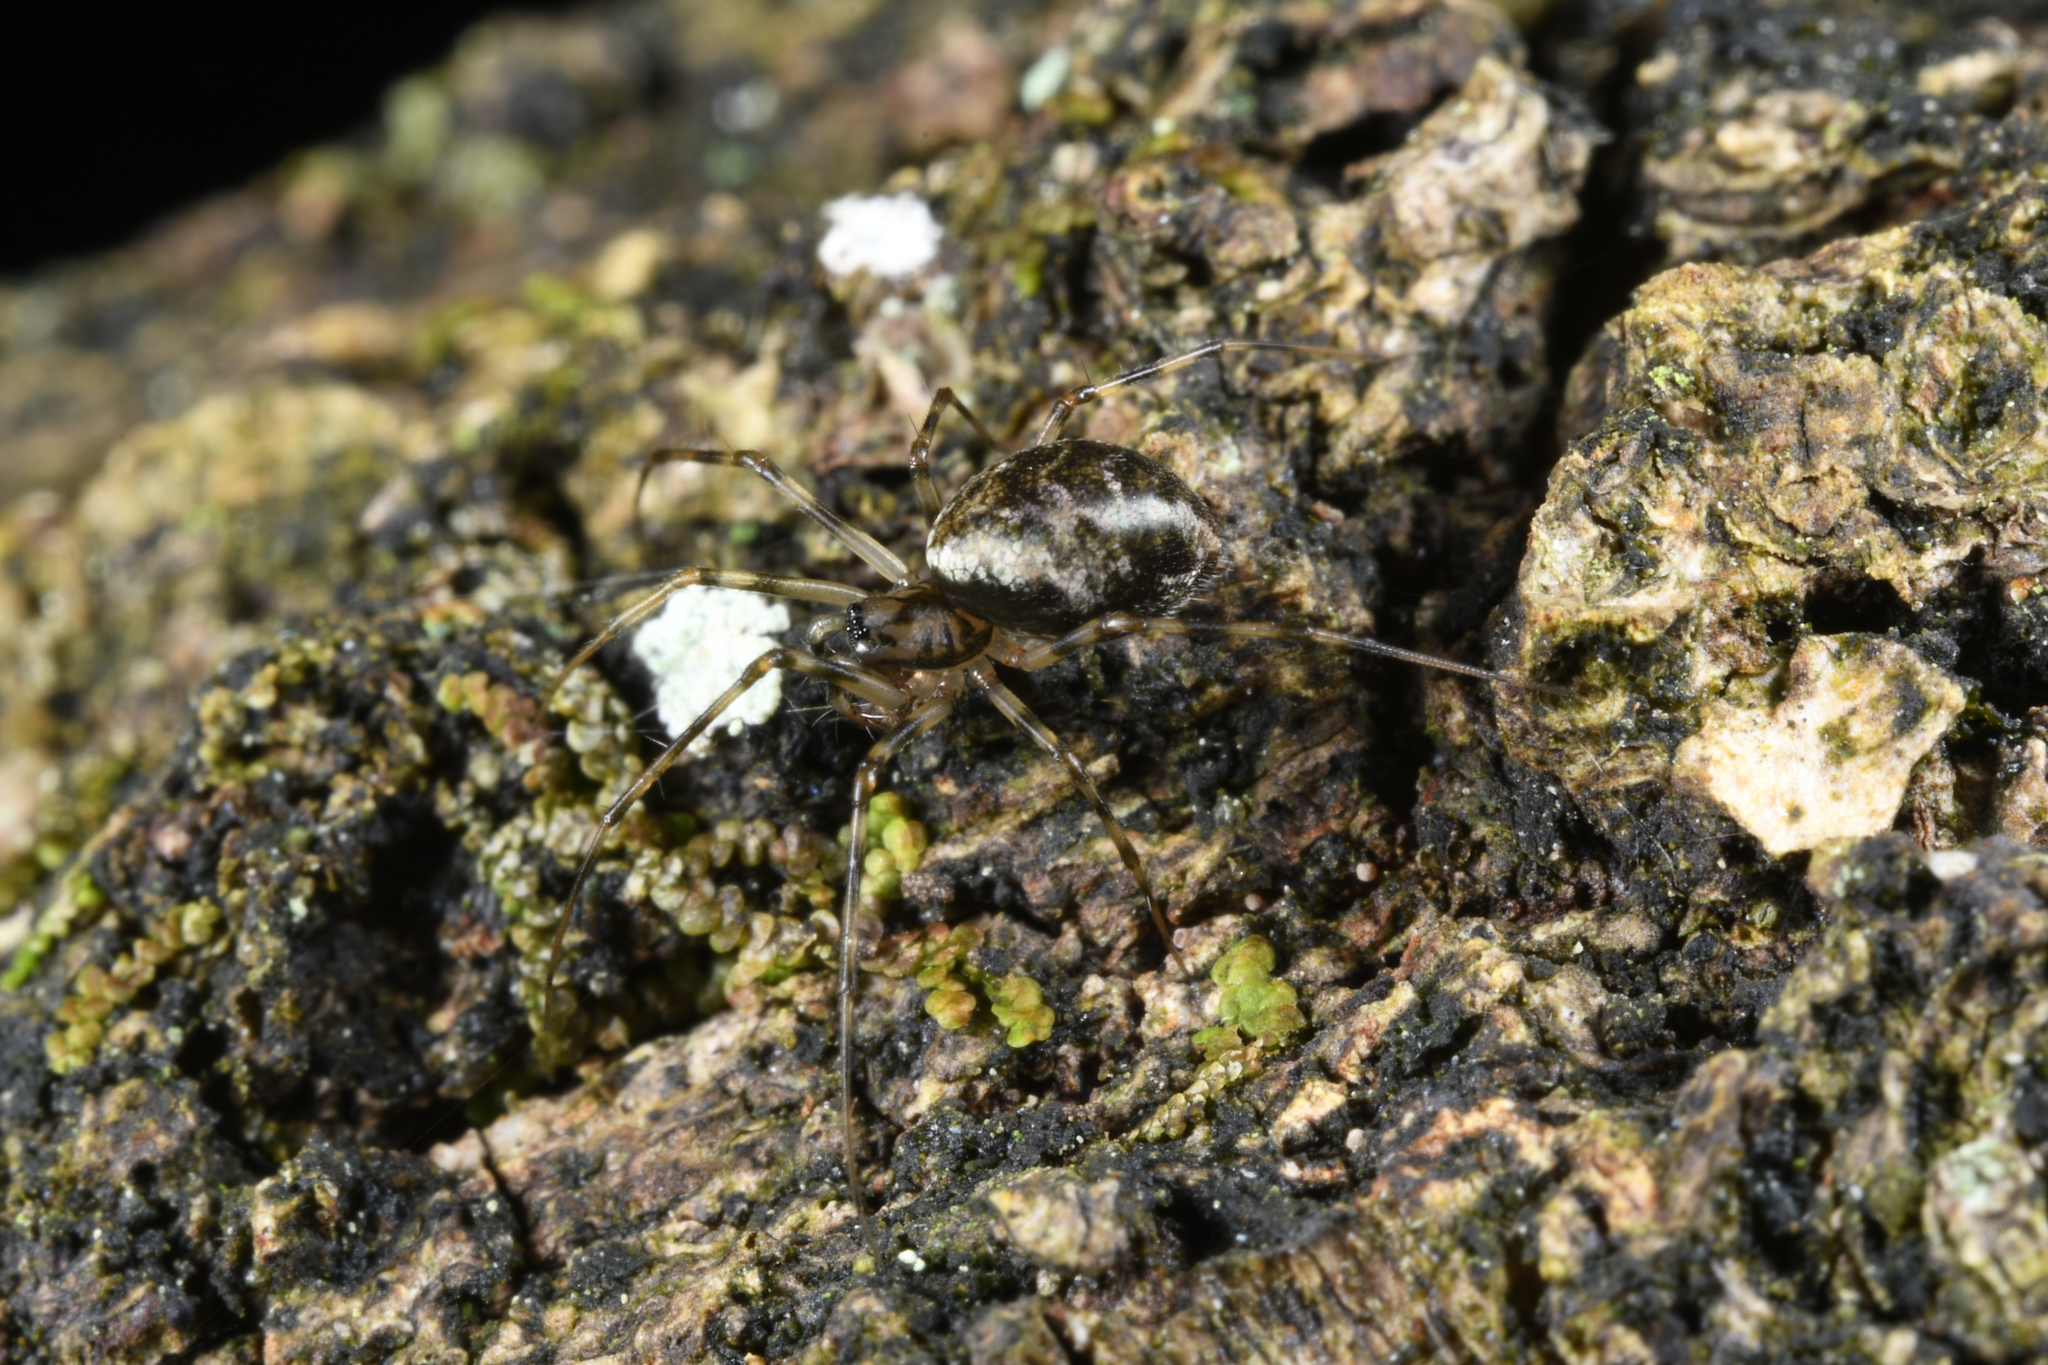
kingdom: Animalia
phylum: Arthropoda
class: Arachnida
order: Araneae
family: Linyphiidae
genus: Drapetisca
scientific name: Drapetisca socialis
